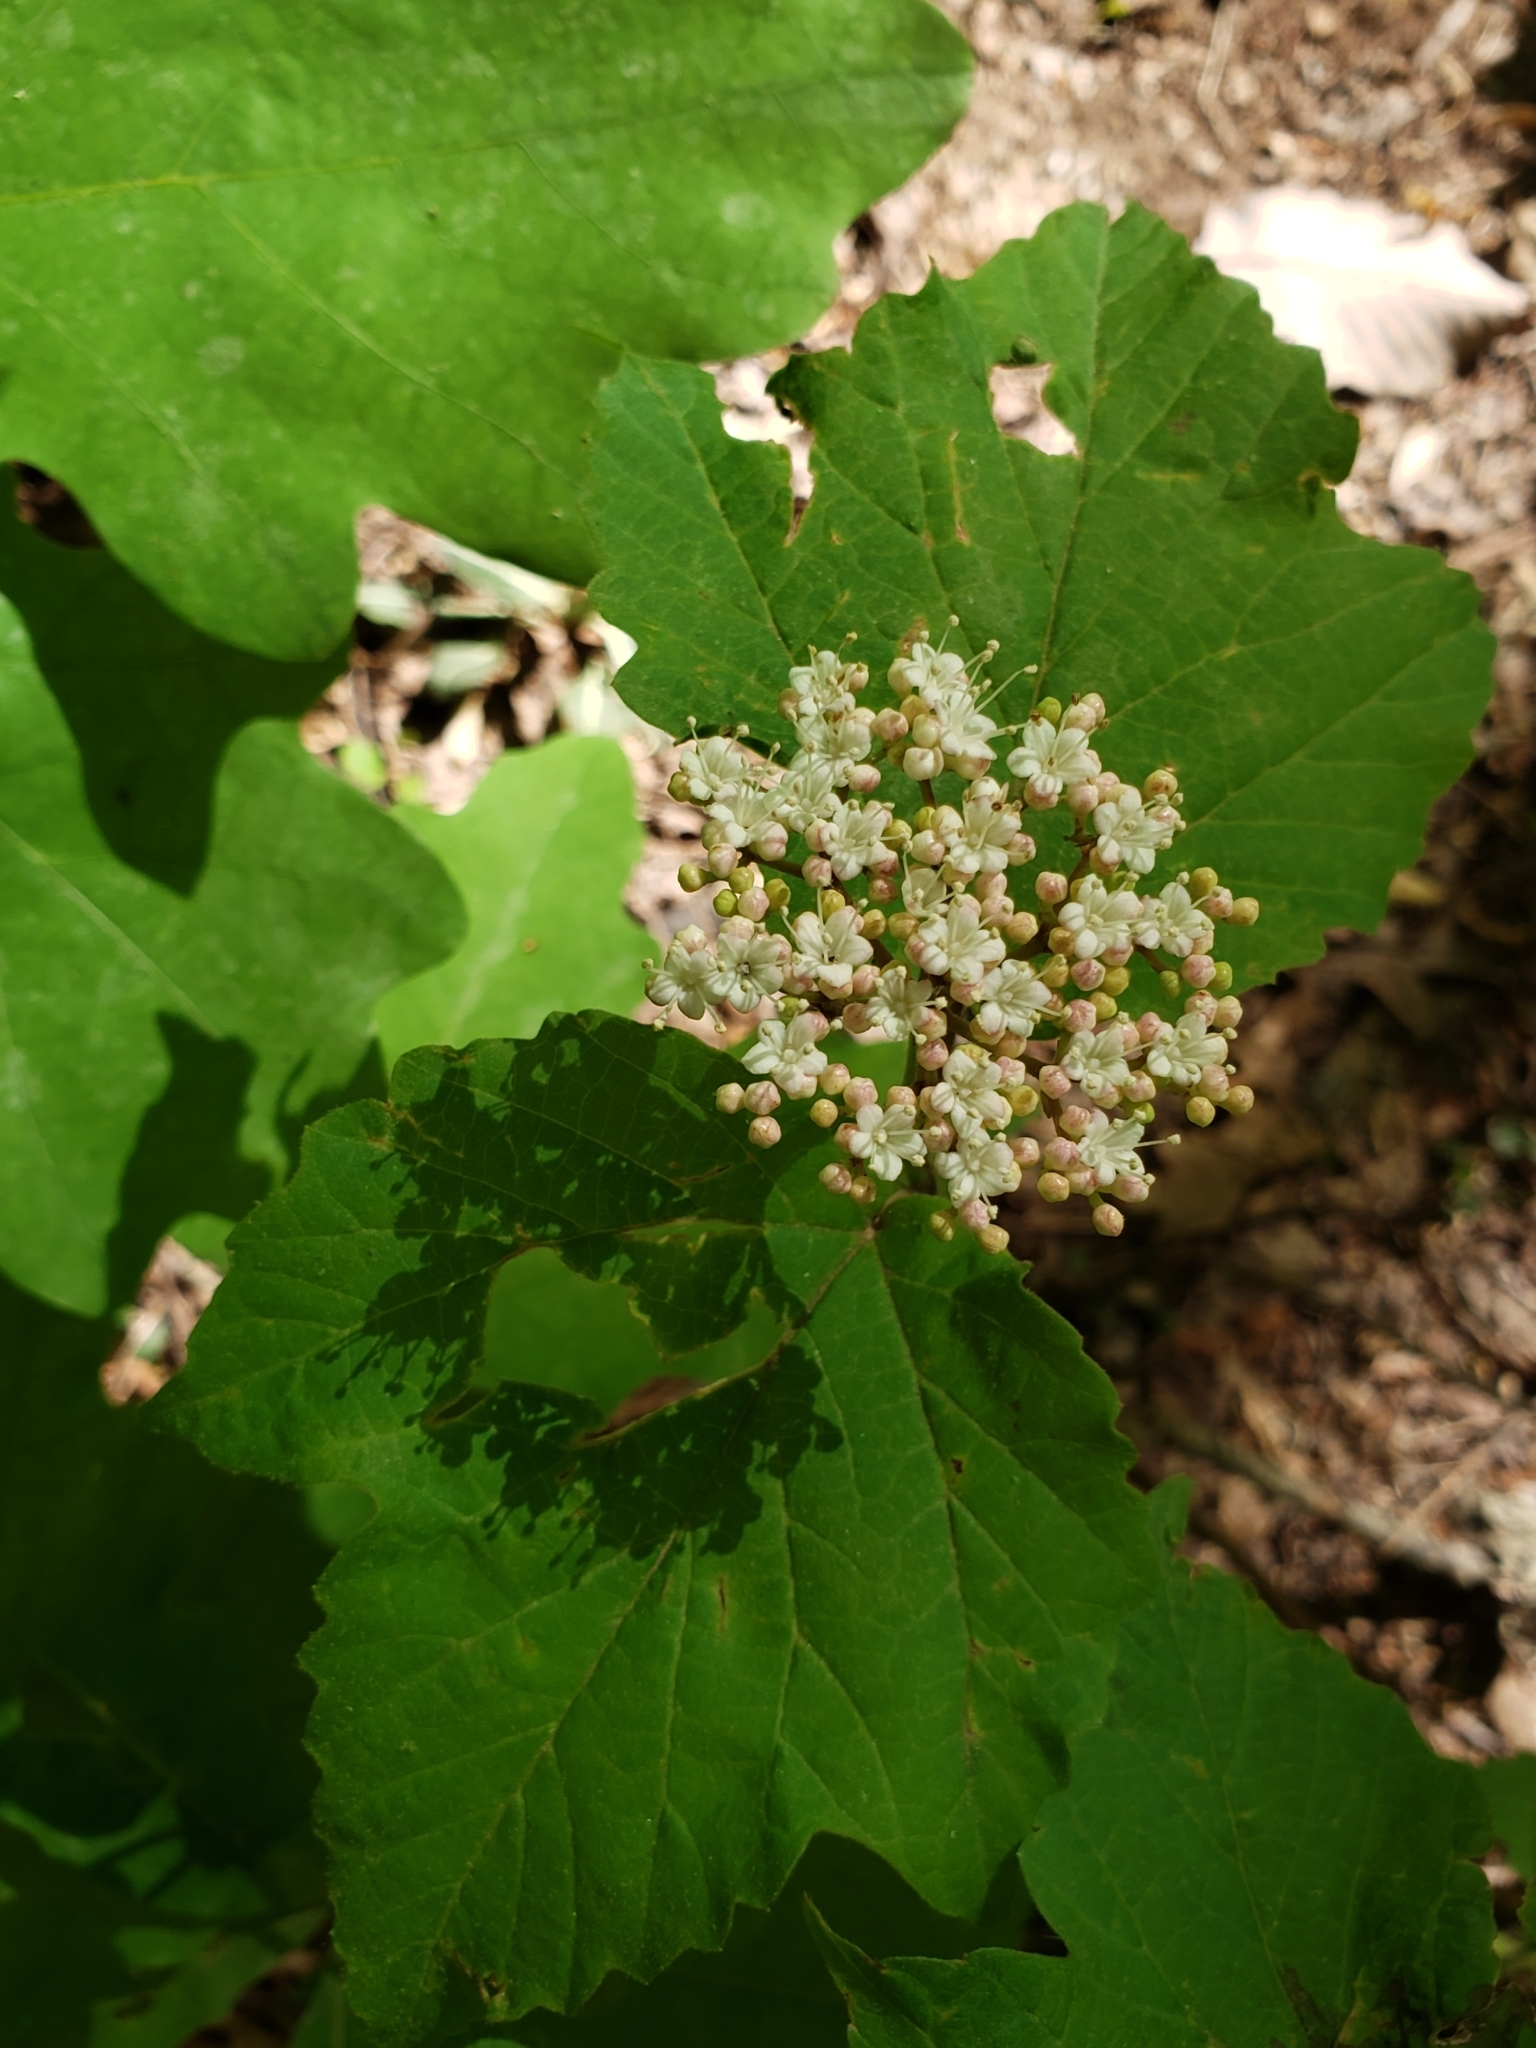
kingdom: Plantae
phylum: Tracheophyta
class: Magnoliopsida
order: Dipsacales
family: Viburnaceae
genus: Viburnum
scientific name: Viburnum acerifolium
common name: Dockmackie
